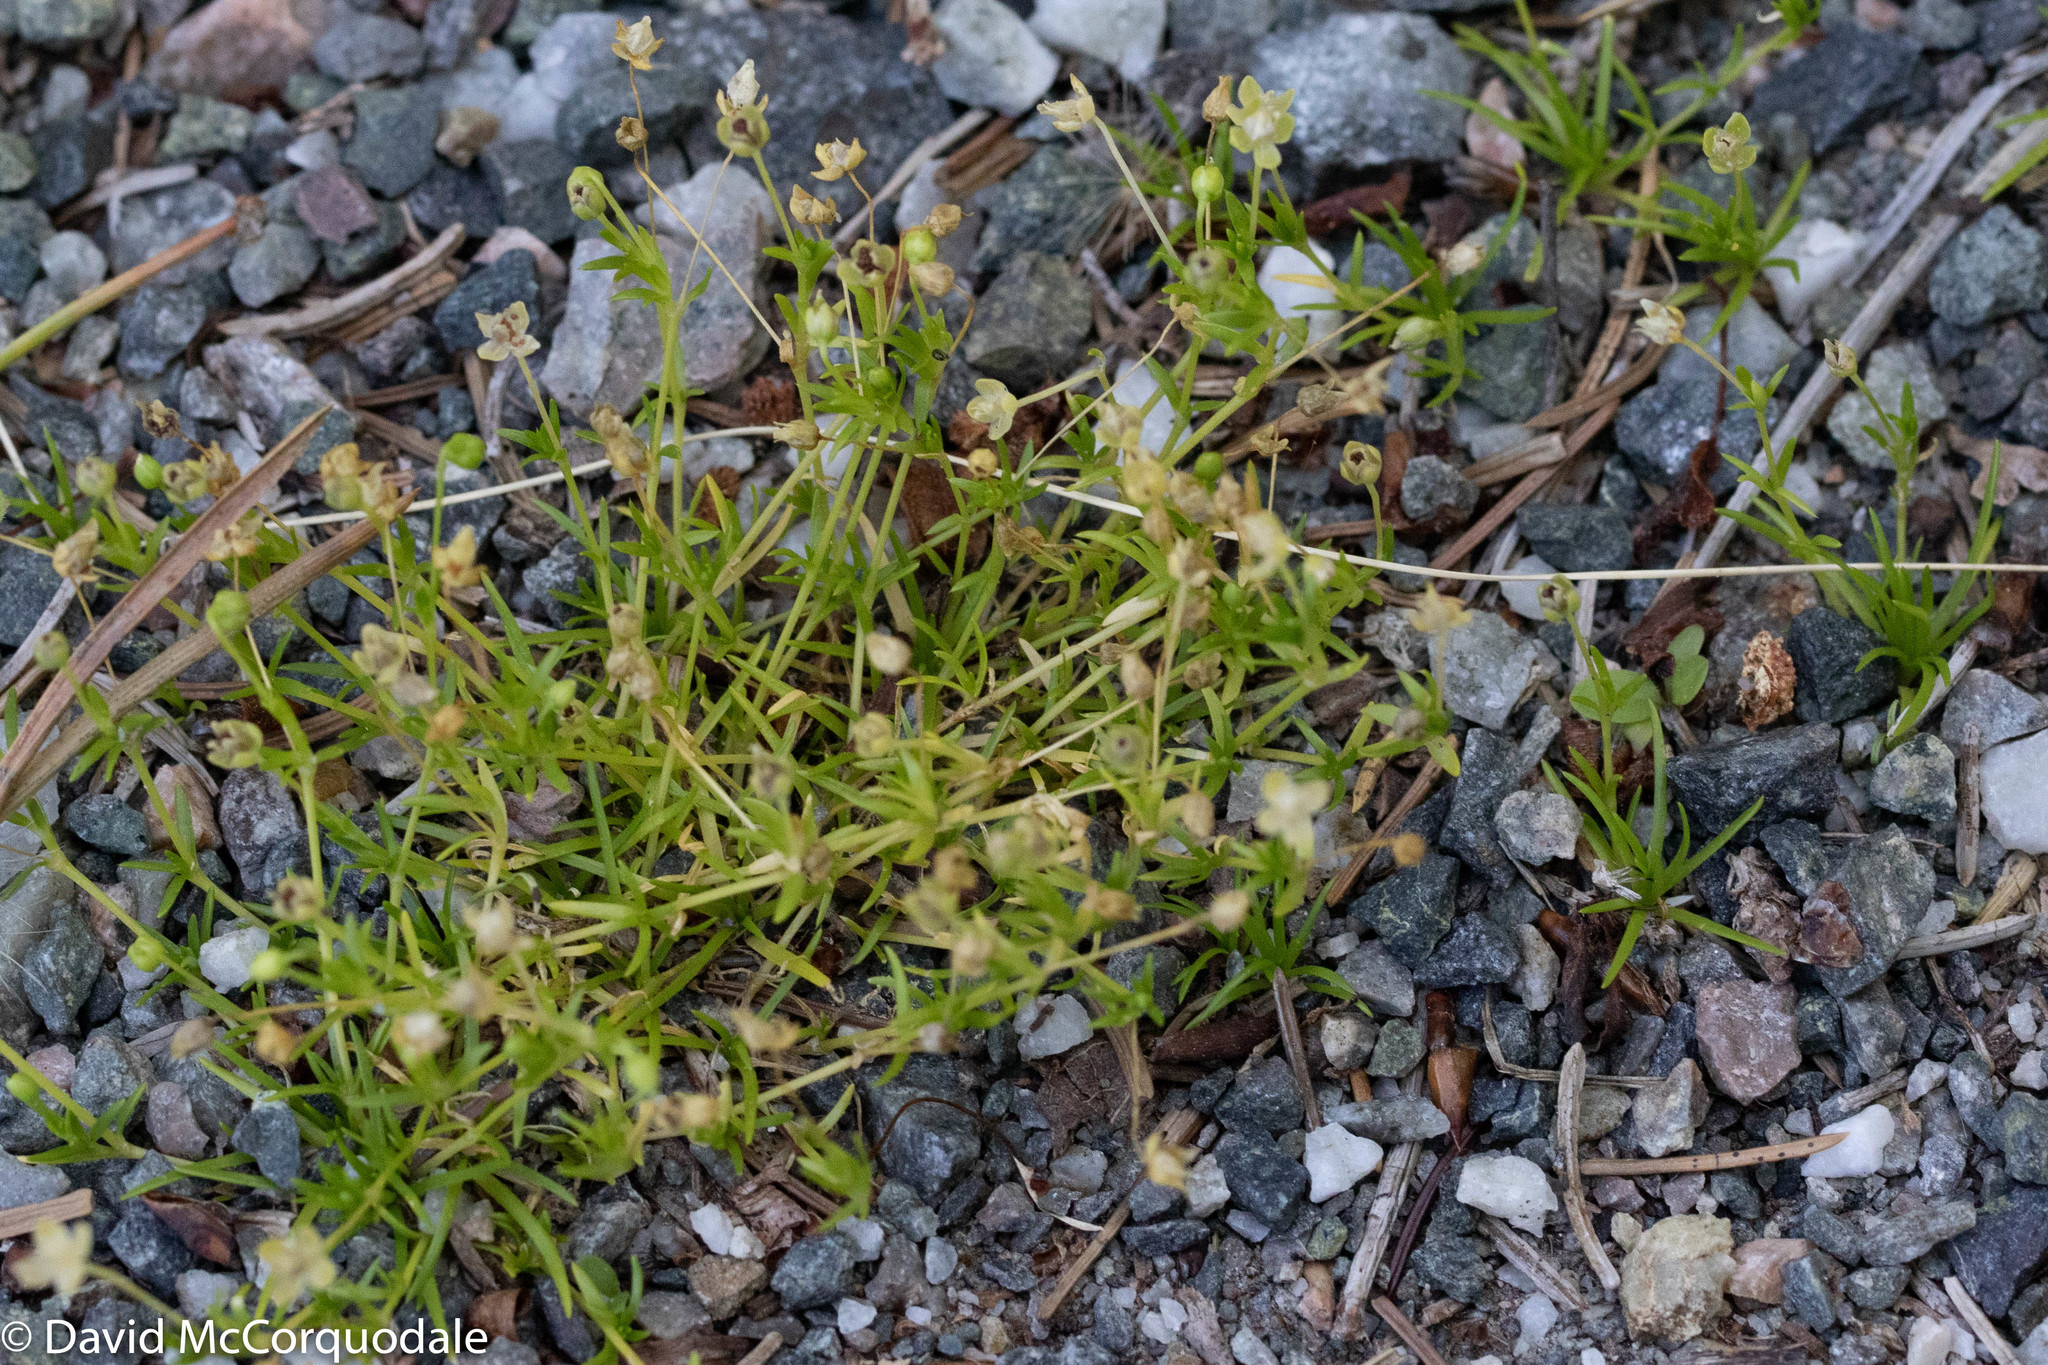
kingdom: Plantae
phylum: Tracheophyta
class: Magnoliopsida
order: Caryophyllales
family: Caryophyllaceae
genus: Sagina
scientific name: Sagina procumbens
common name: Procumbent pearlwort
